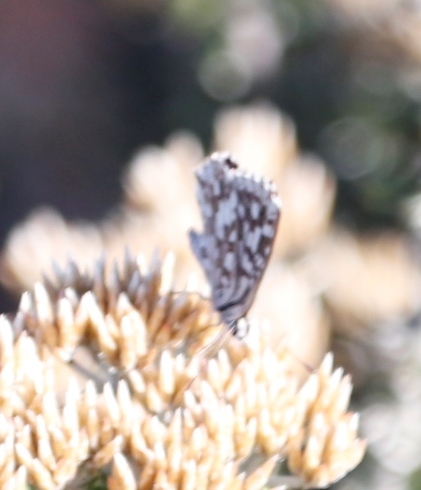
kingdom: Animalia
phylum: Arthropoda
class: Insecta
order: Lepidoptera
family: Lycaenidae
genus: Tarucus
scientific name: Tarucus thespis
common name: Vivid dotted blue
